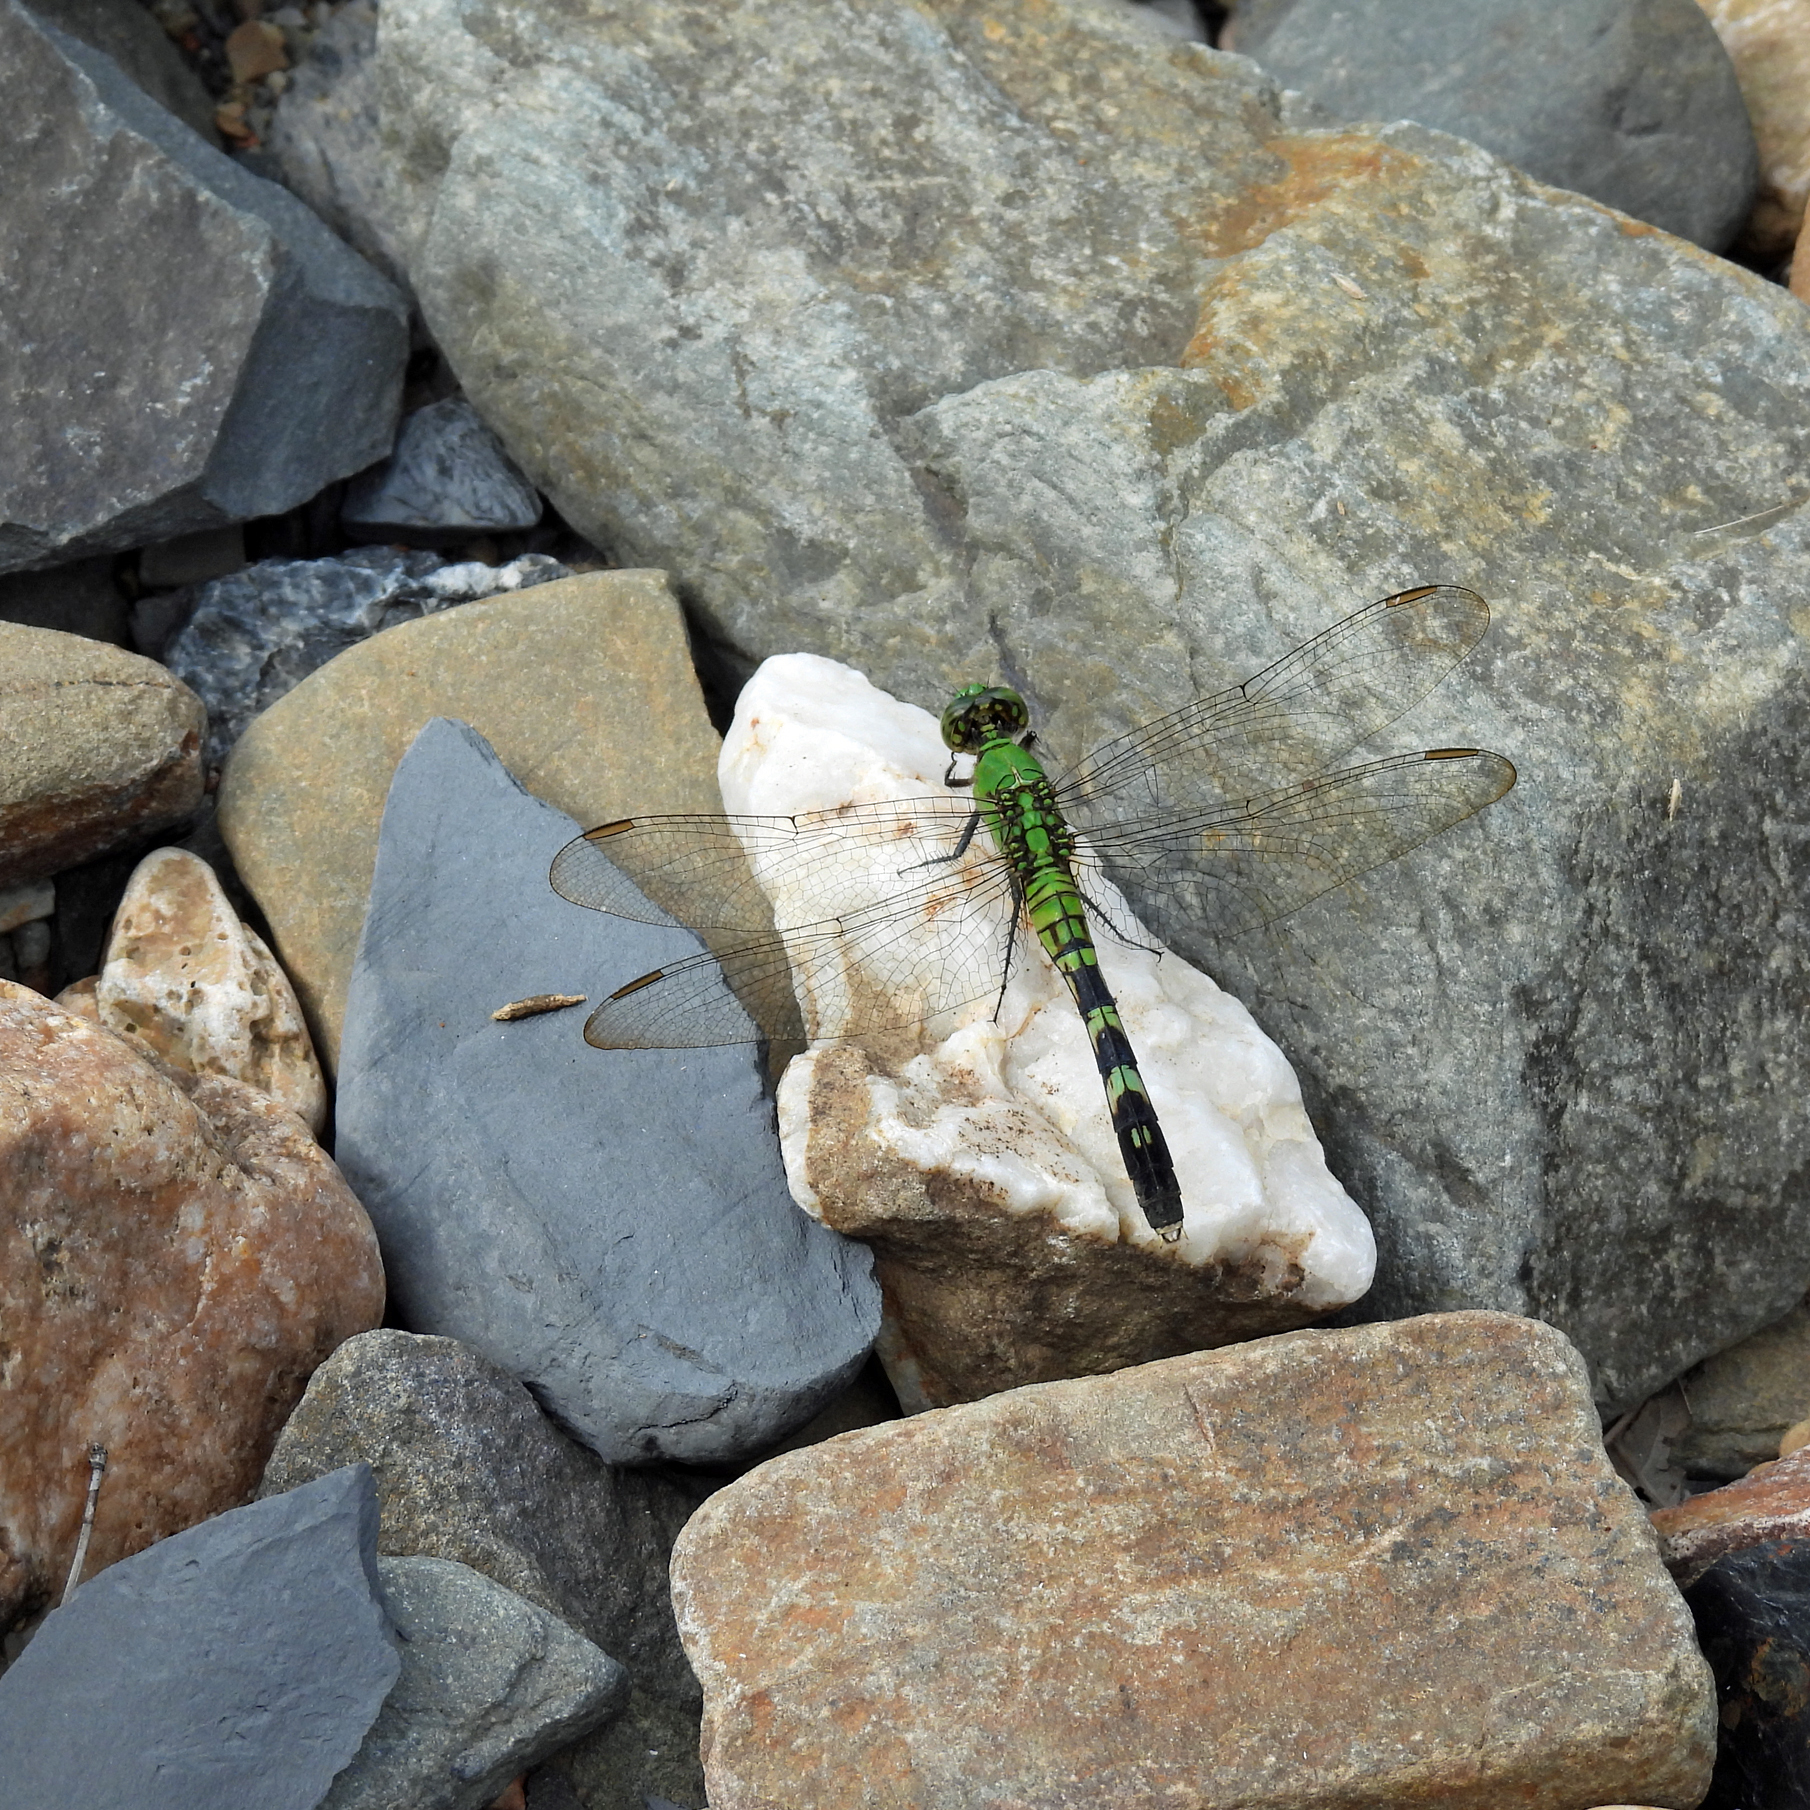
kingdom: Animalia
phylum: Arthropoda
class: Insecta
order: Odonata
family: Libellulidae
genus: Erythemis
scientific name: Erythemis simplicicollis
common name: Eastern pondhawk
